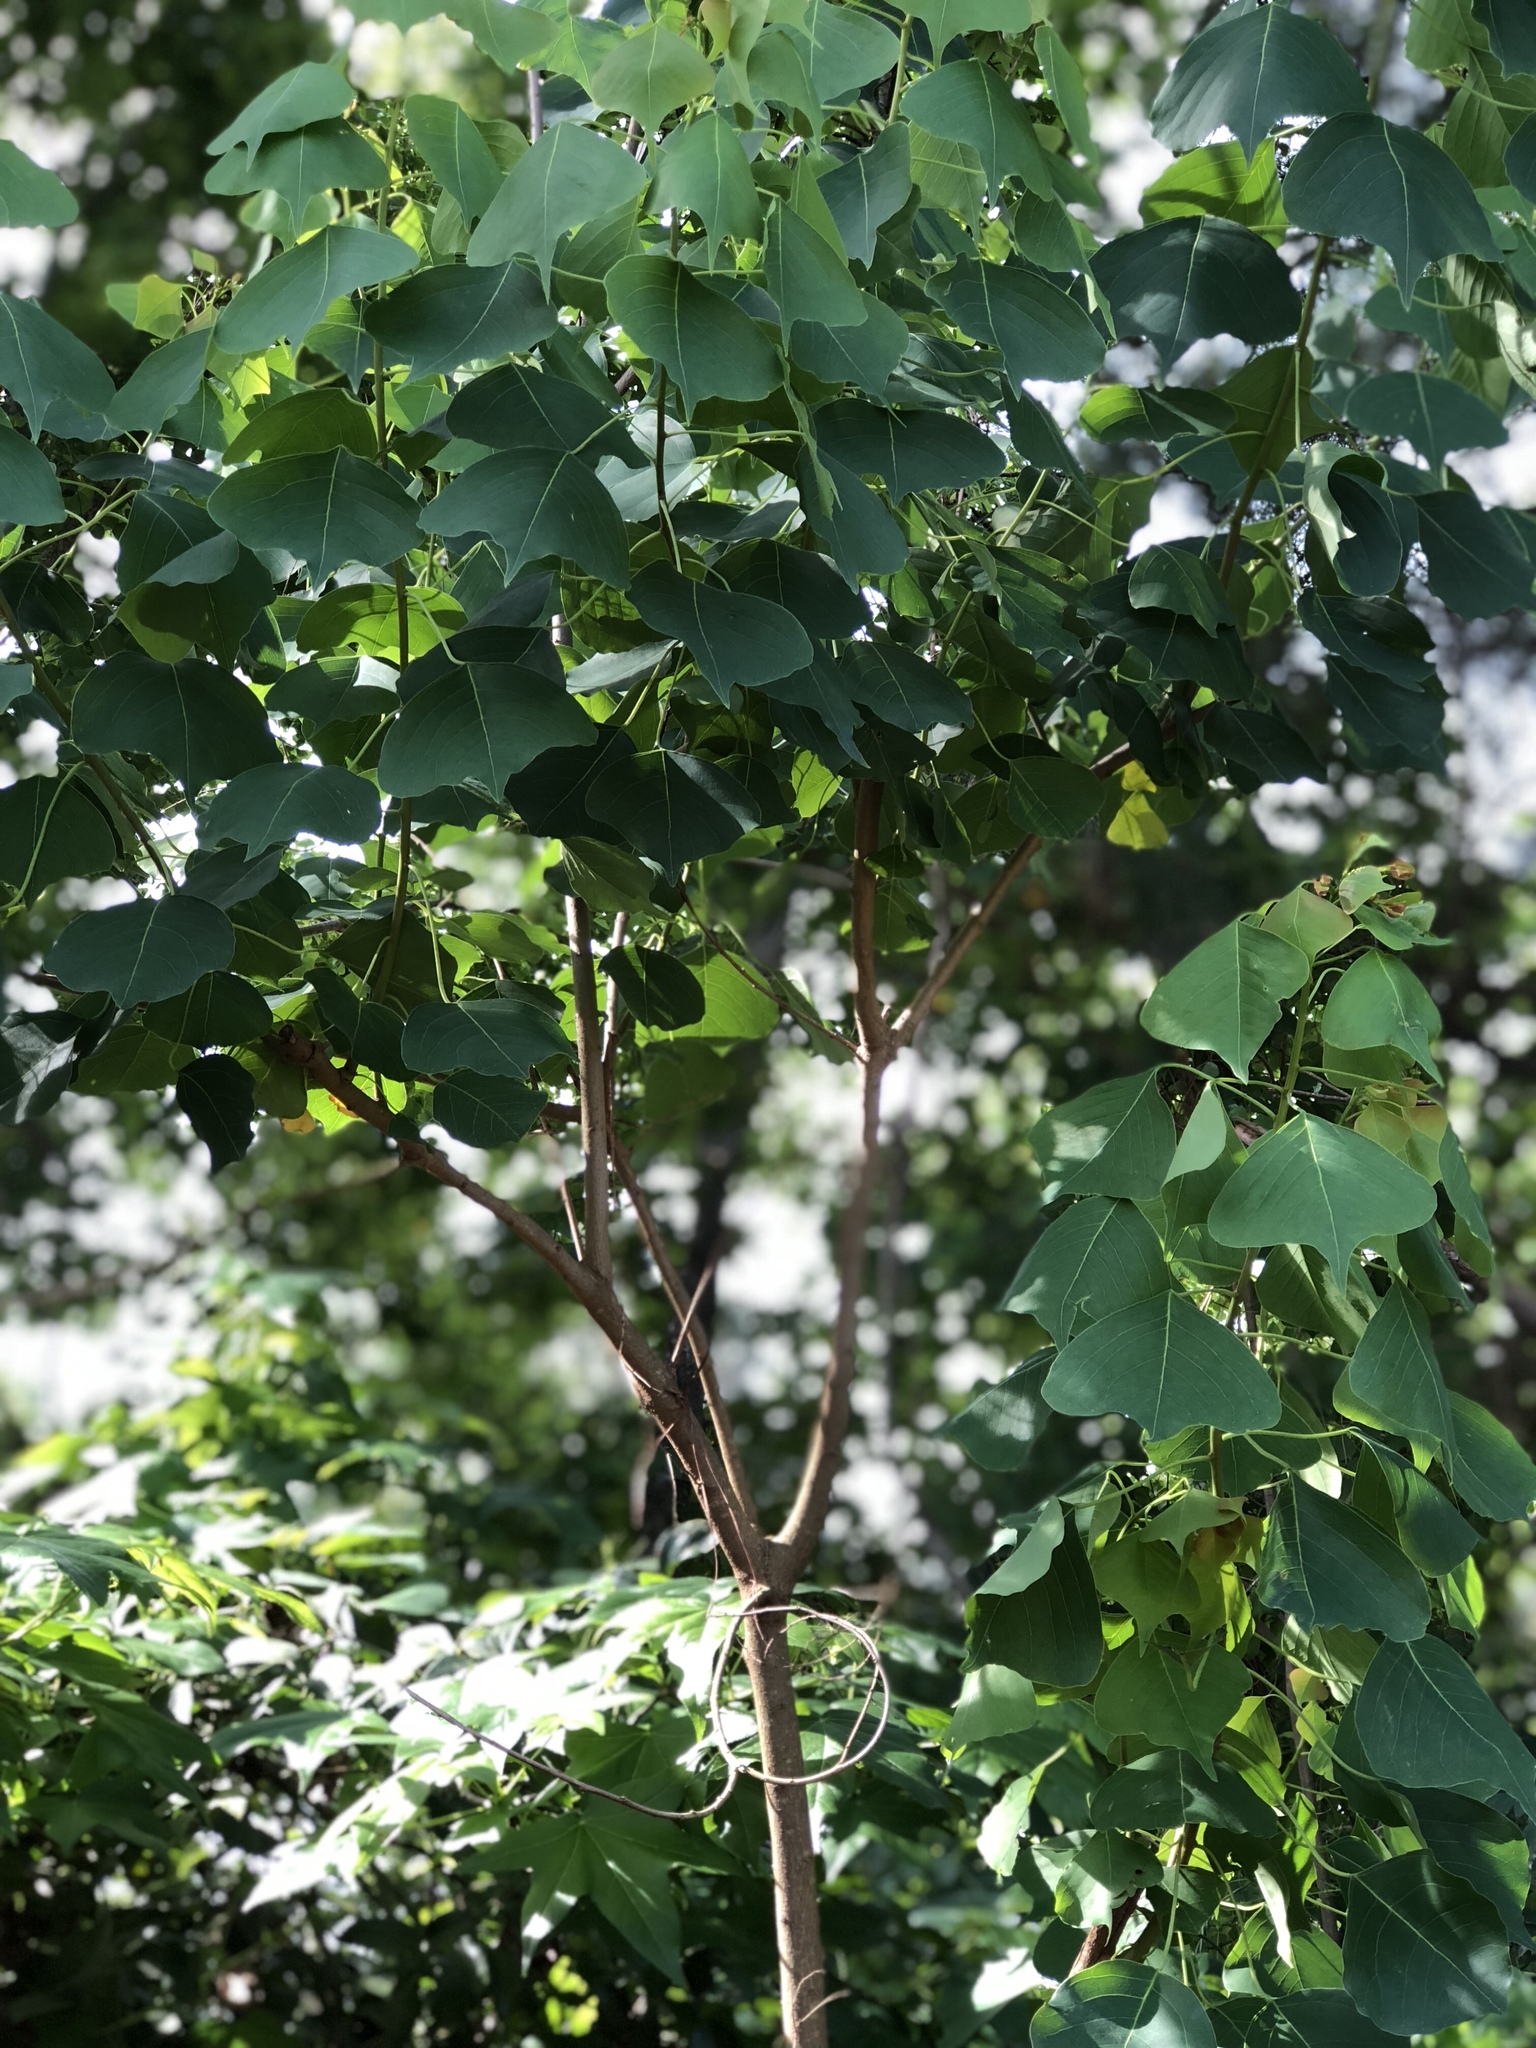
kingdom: Plantae
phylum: Tracheophyta
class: Magnoliopsida
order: Malpighiales
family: Euphorbiaceae
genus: Triadica
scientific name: Triadica sebifera
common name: Chinese tallow
